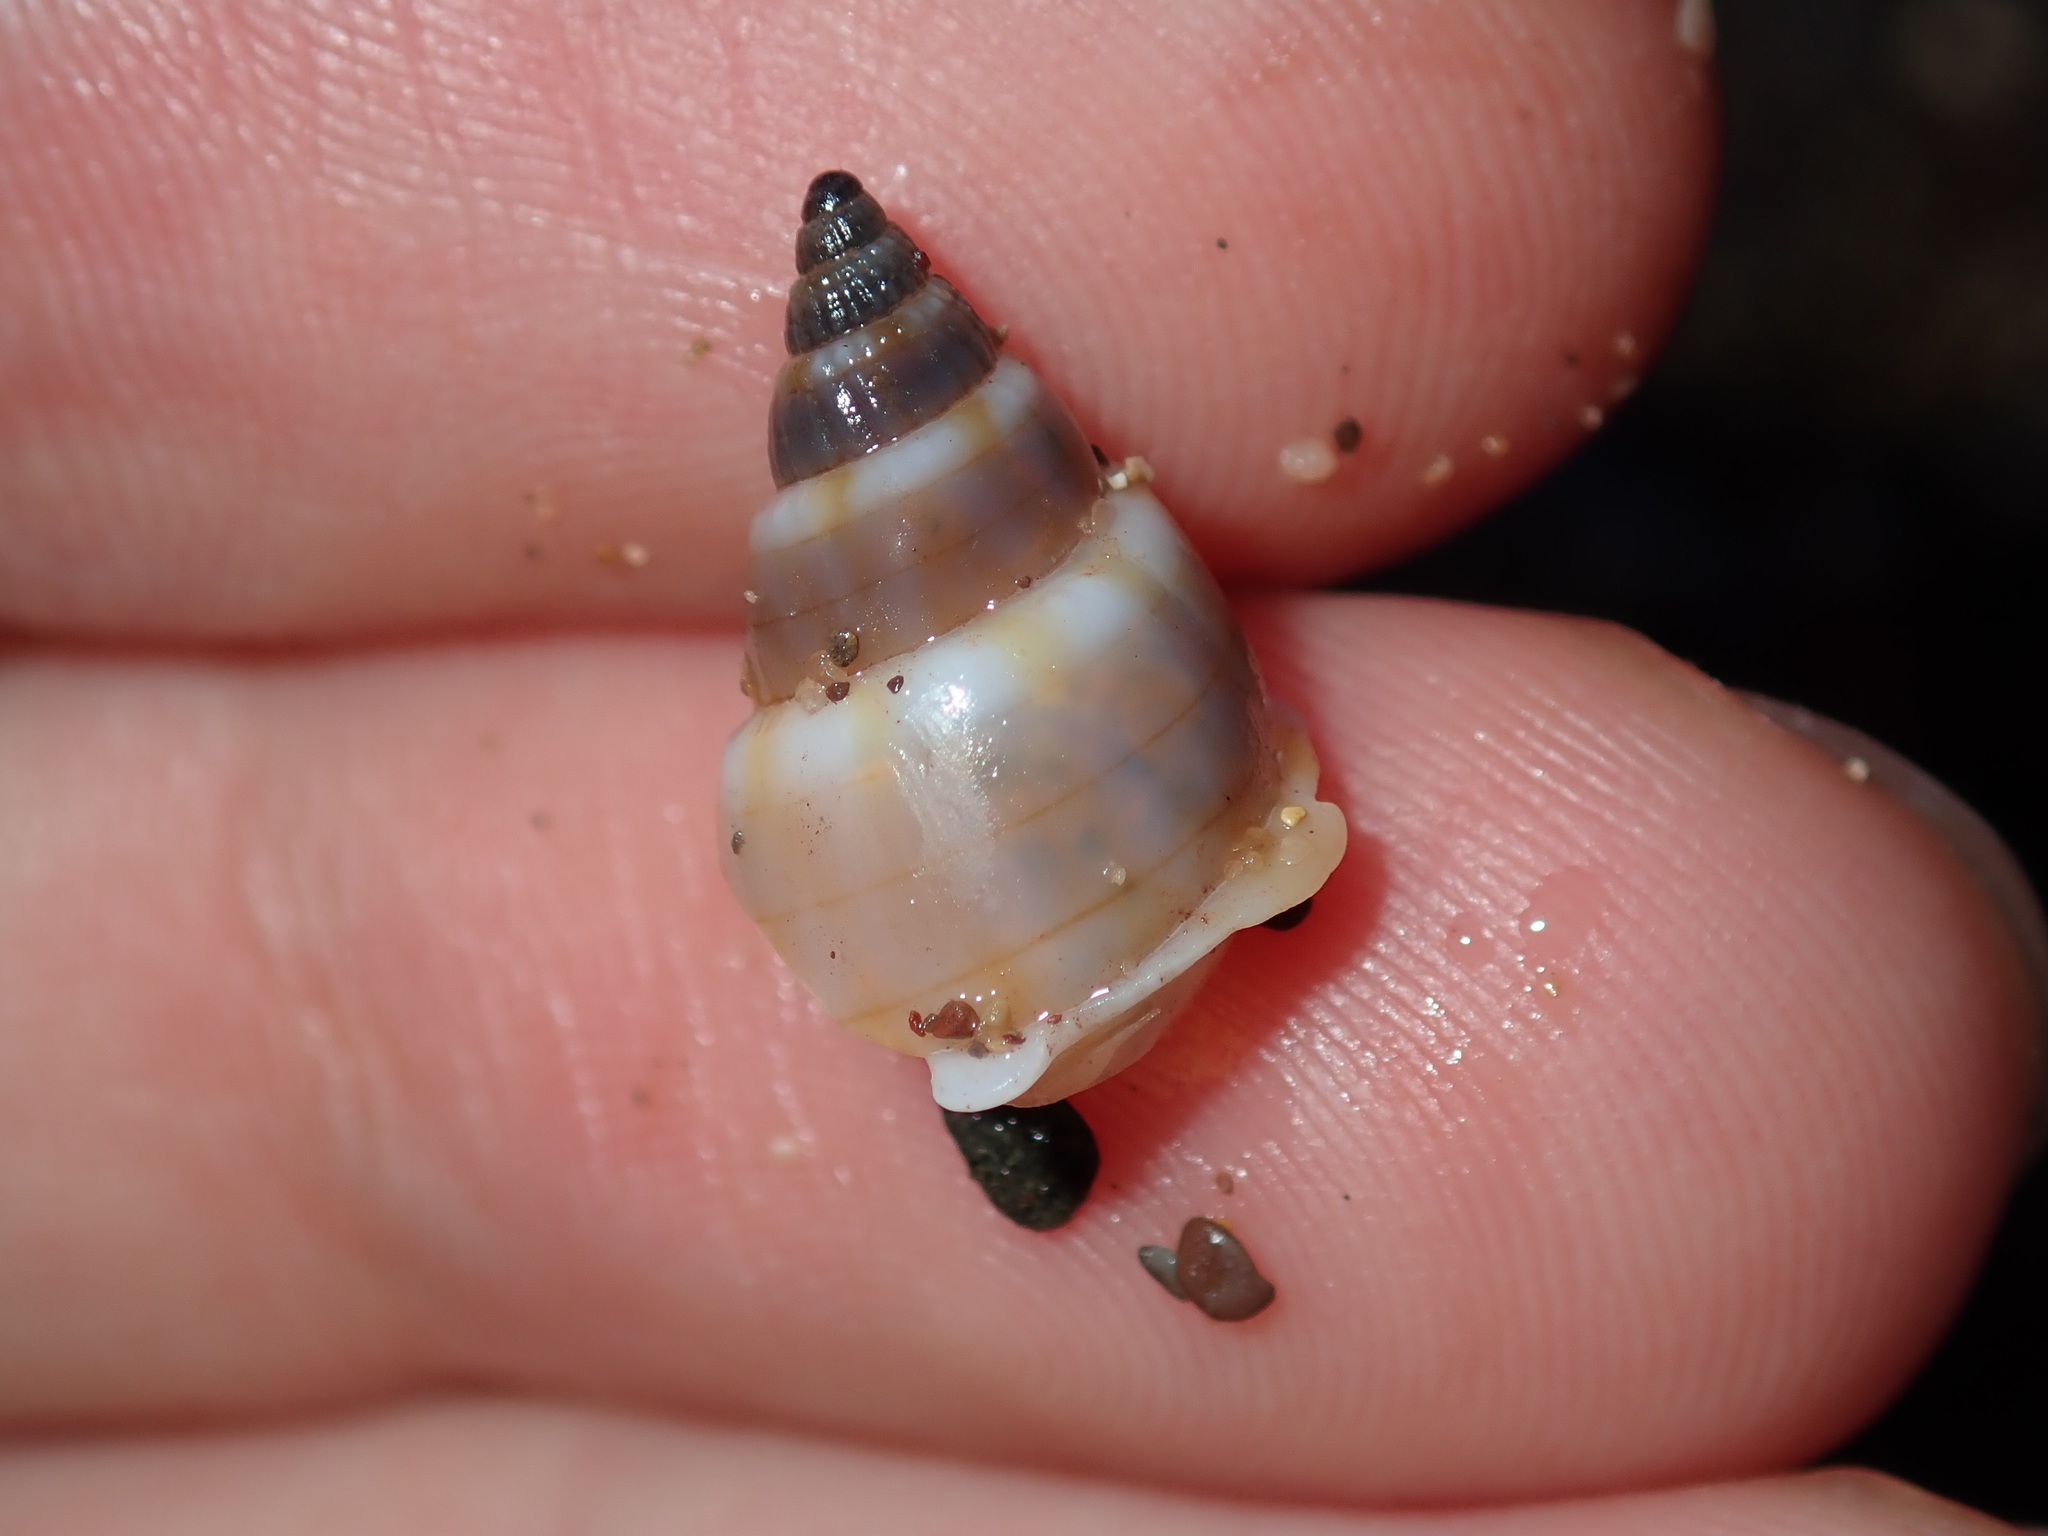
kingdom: Animalia
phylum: Mollusca
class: Gastropoda
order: Neogastropoda
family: Nassariidae
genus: Nassarius
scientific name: Nassarius particeps
